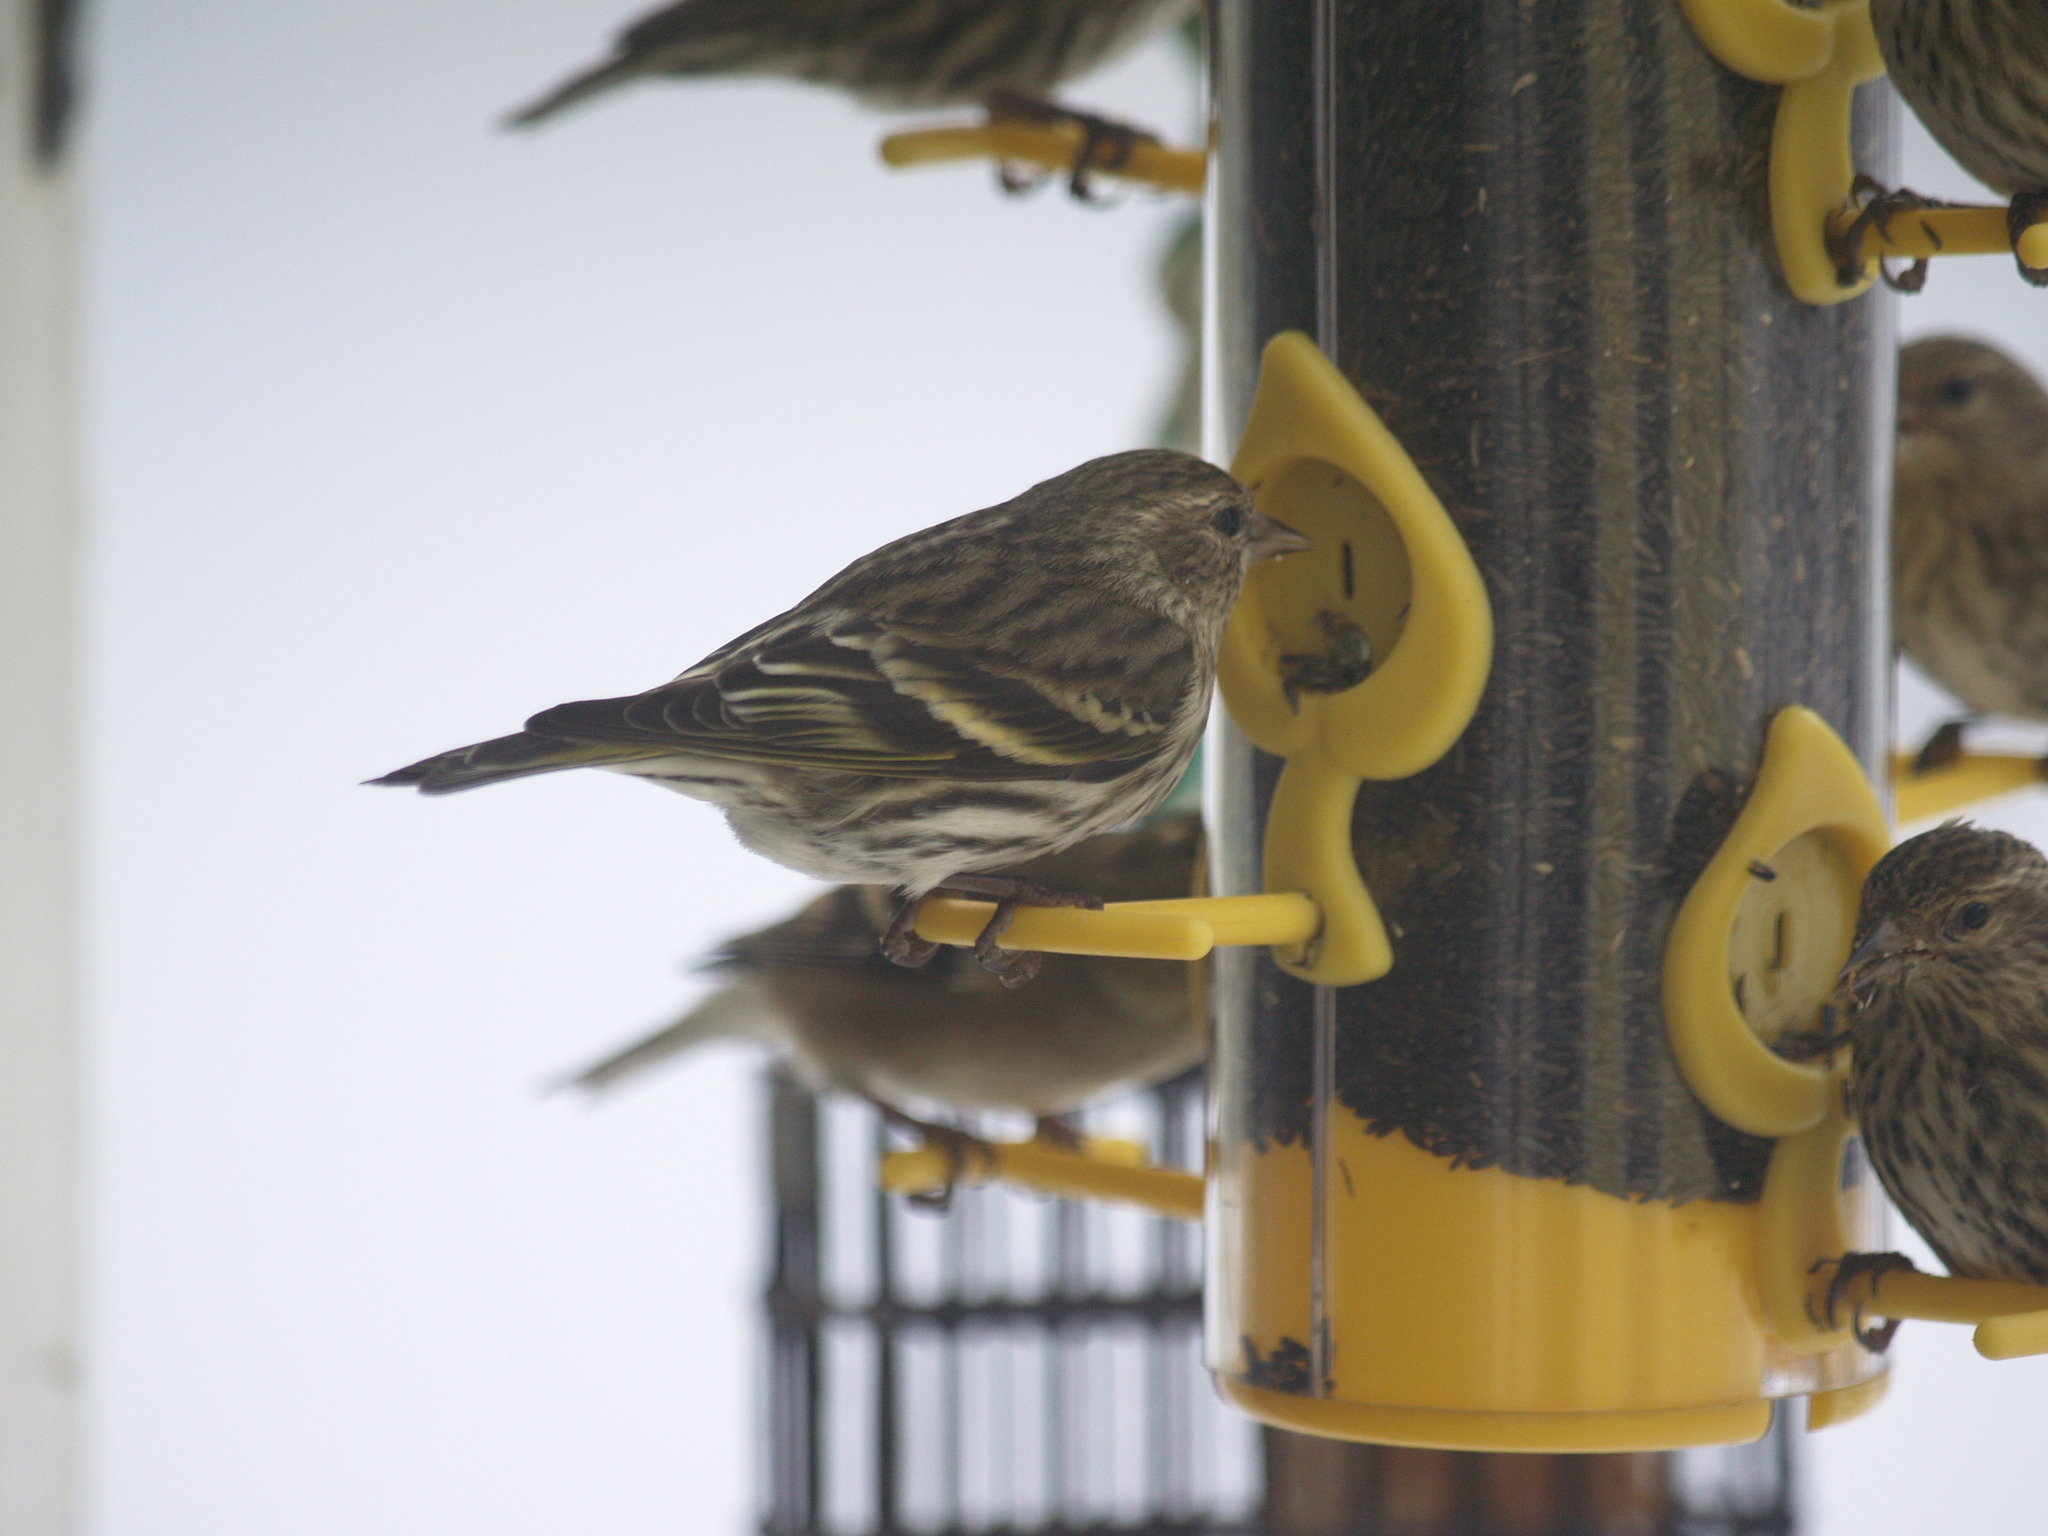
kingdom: Animalia
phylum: Chordata
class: Aves
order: Passeriformes
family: Fringillidae
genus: Spinus
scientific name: Spinus pinus
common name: Pine siskin
